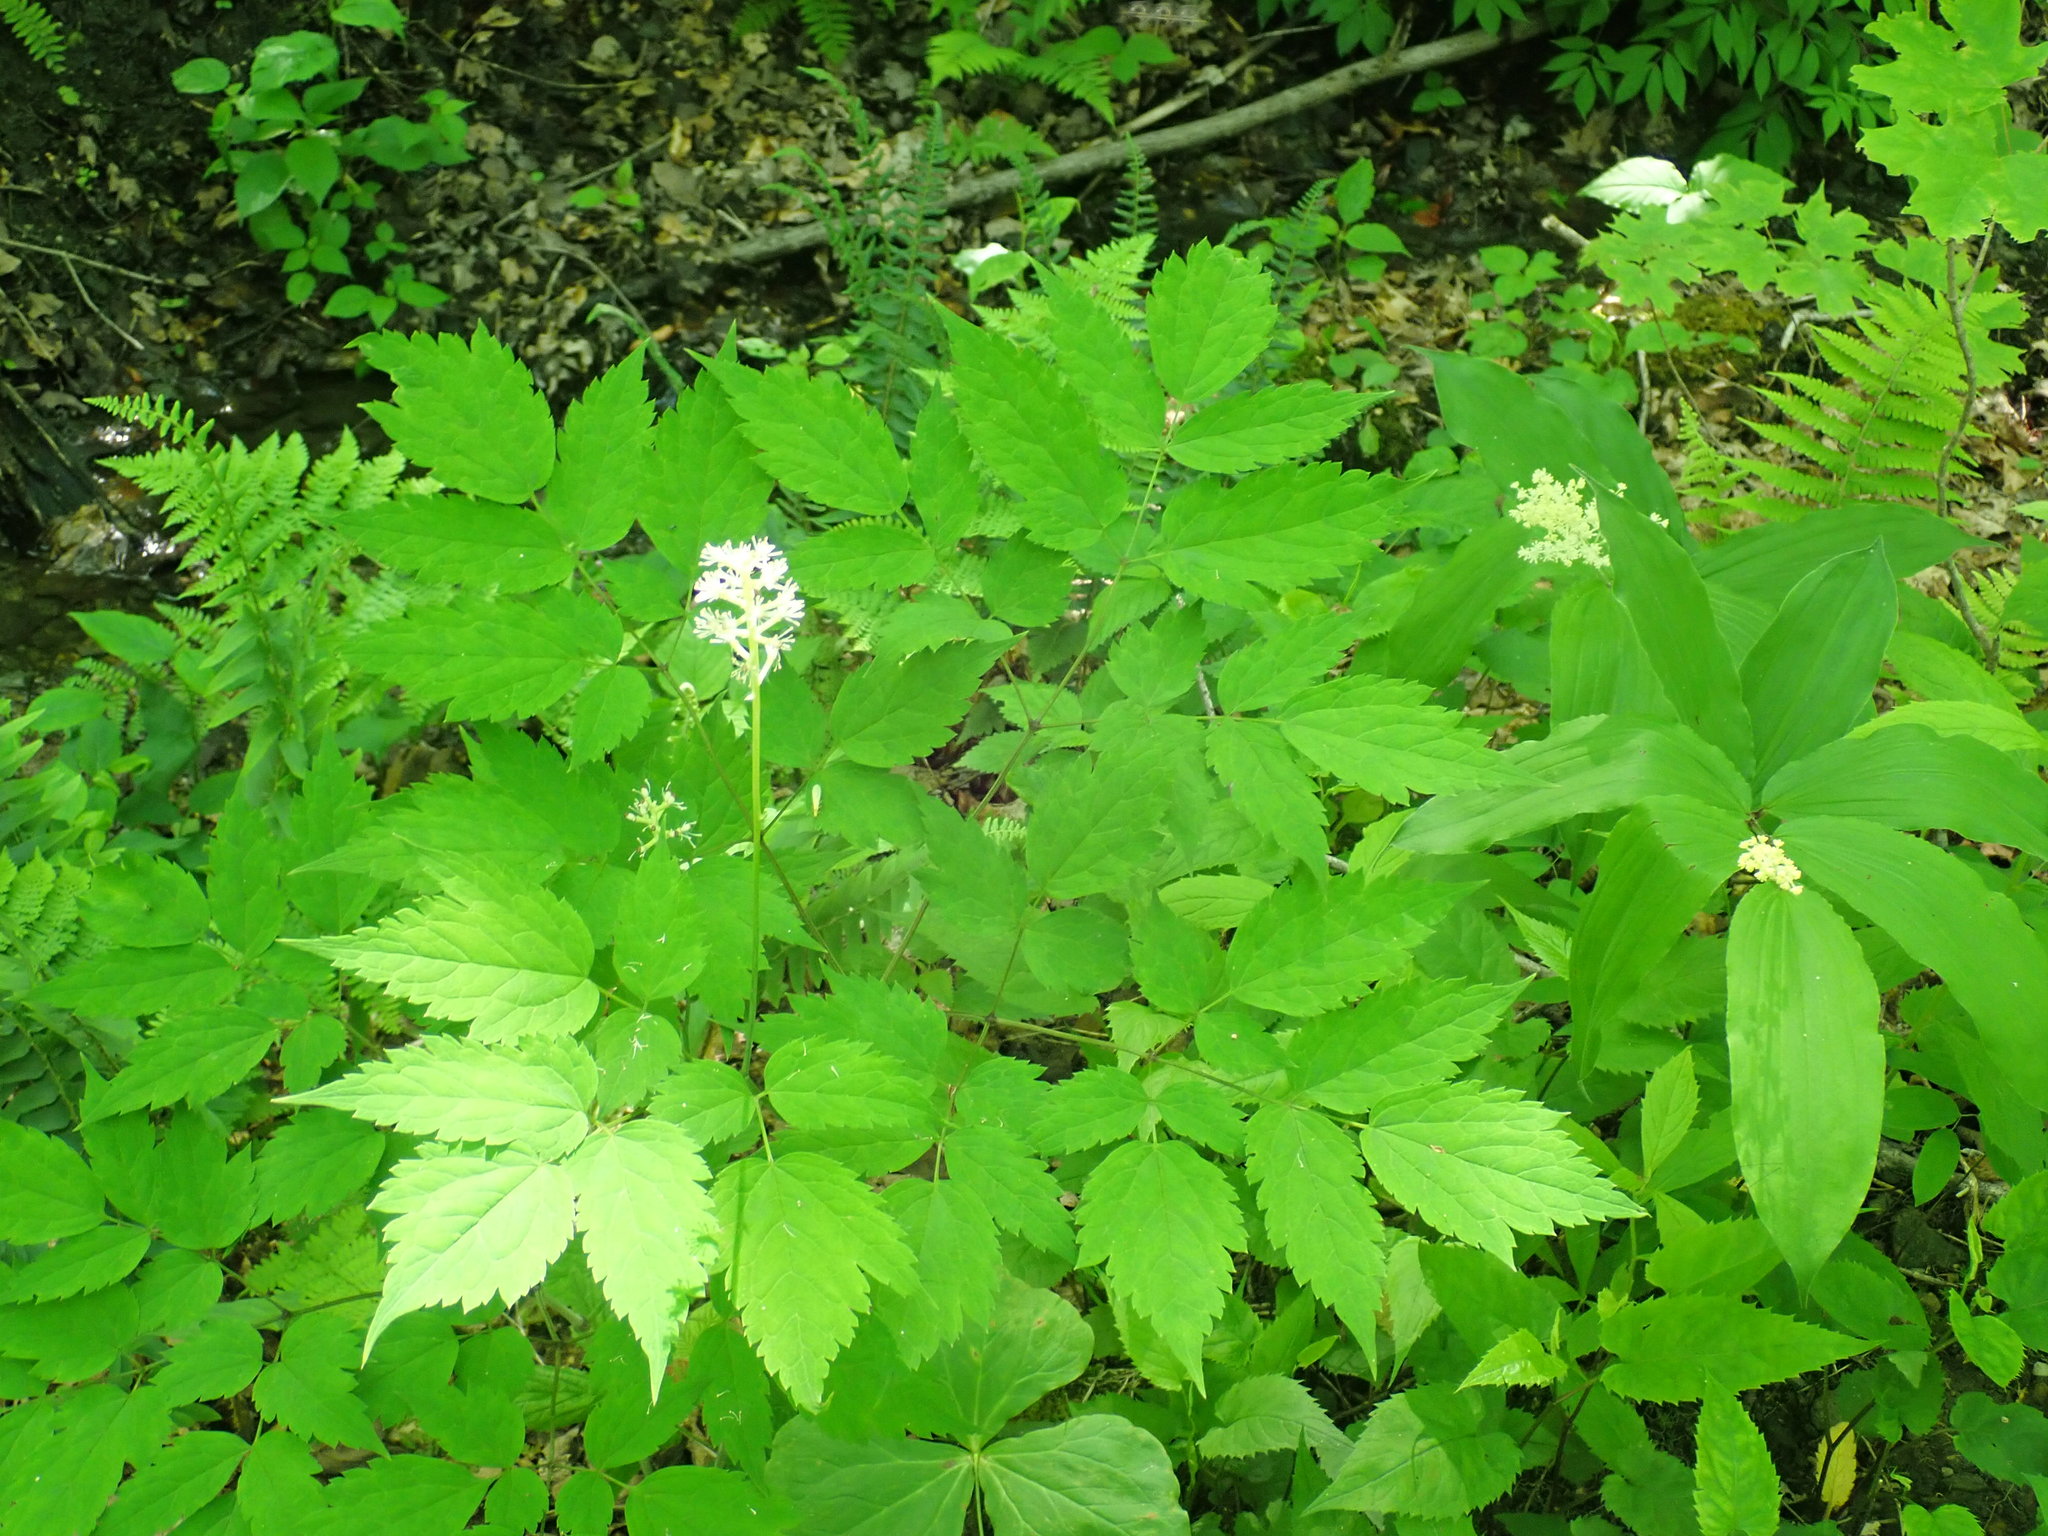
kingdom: Plantae
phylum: Tracheophyta
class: Magnoliopsida
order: Ranunculales
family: Ranunculaceae
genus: Actaea
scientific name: Actaea pachypoda
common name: Doll's-eyes
